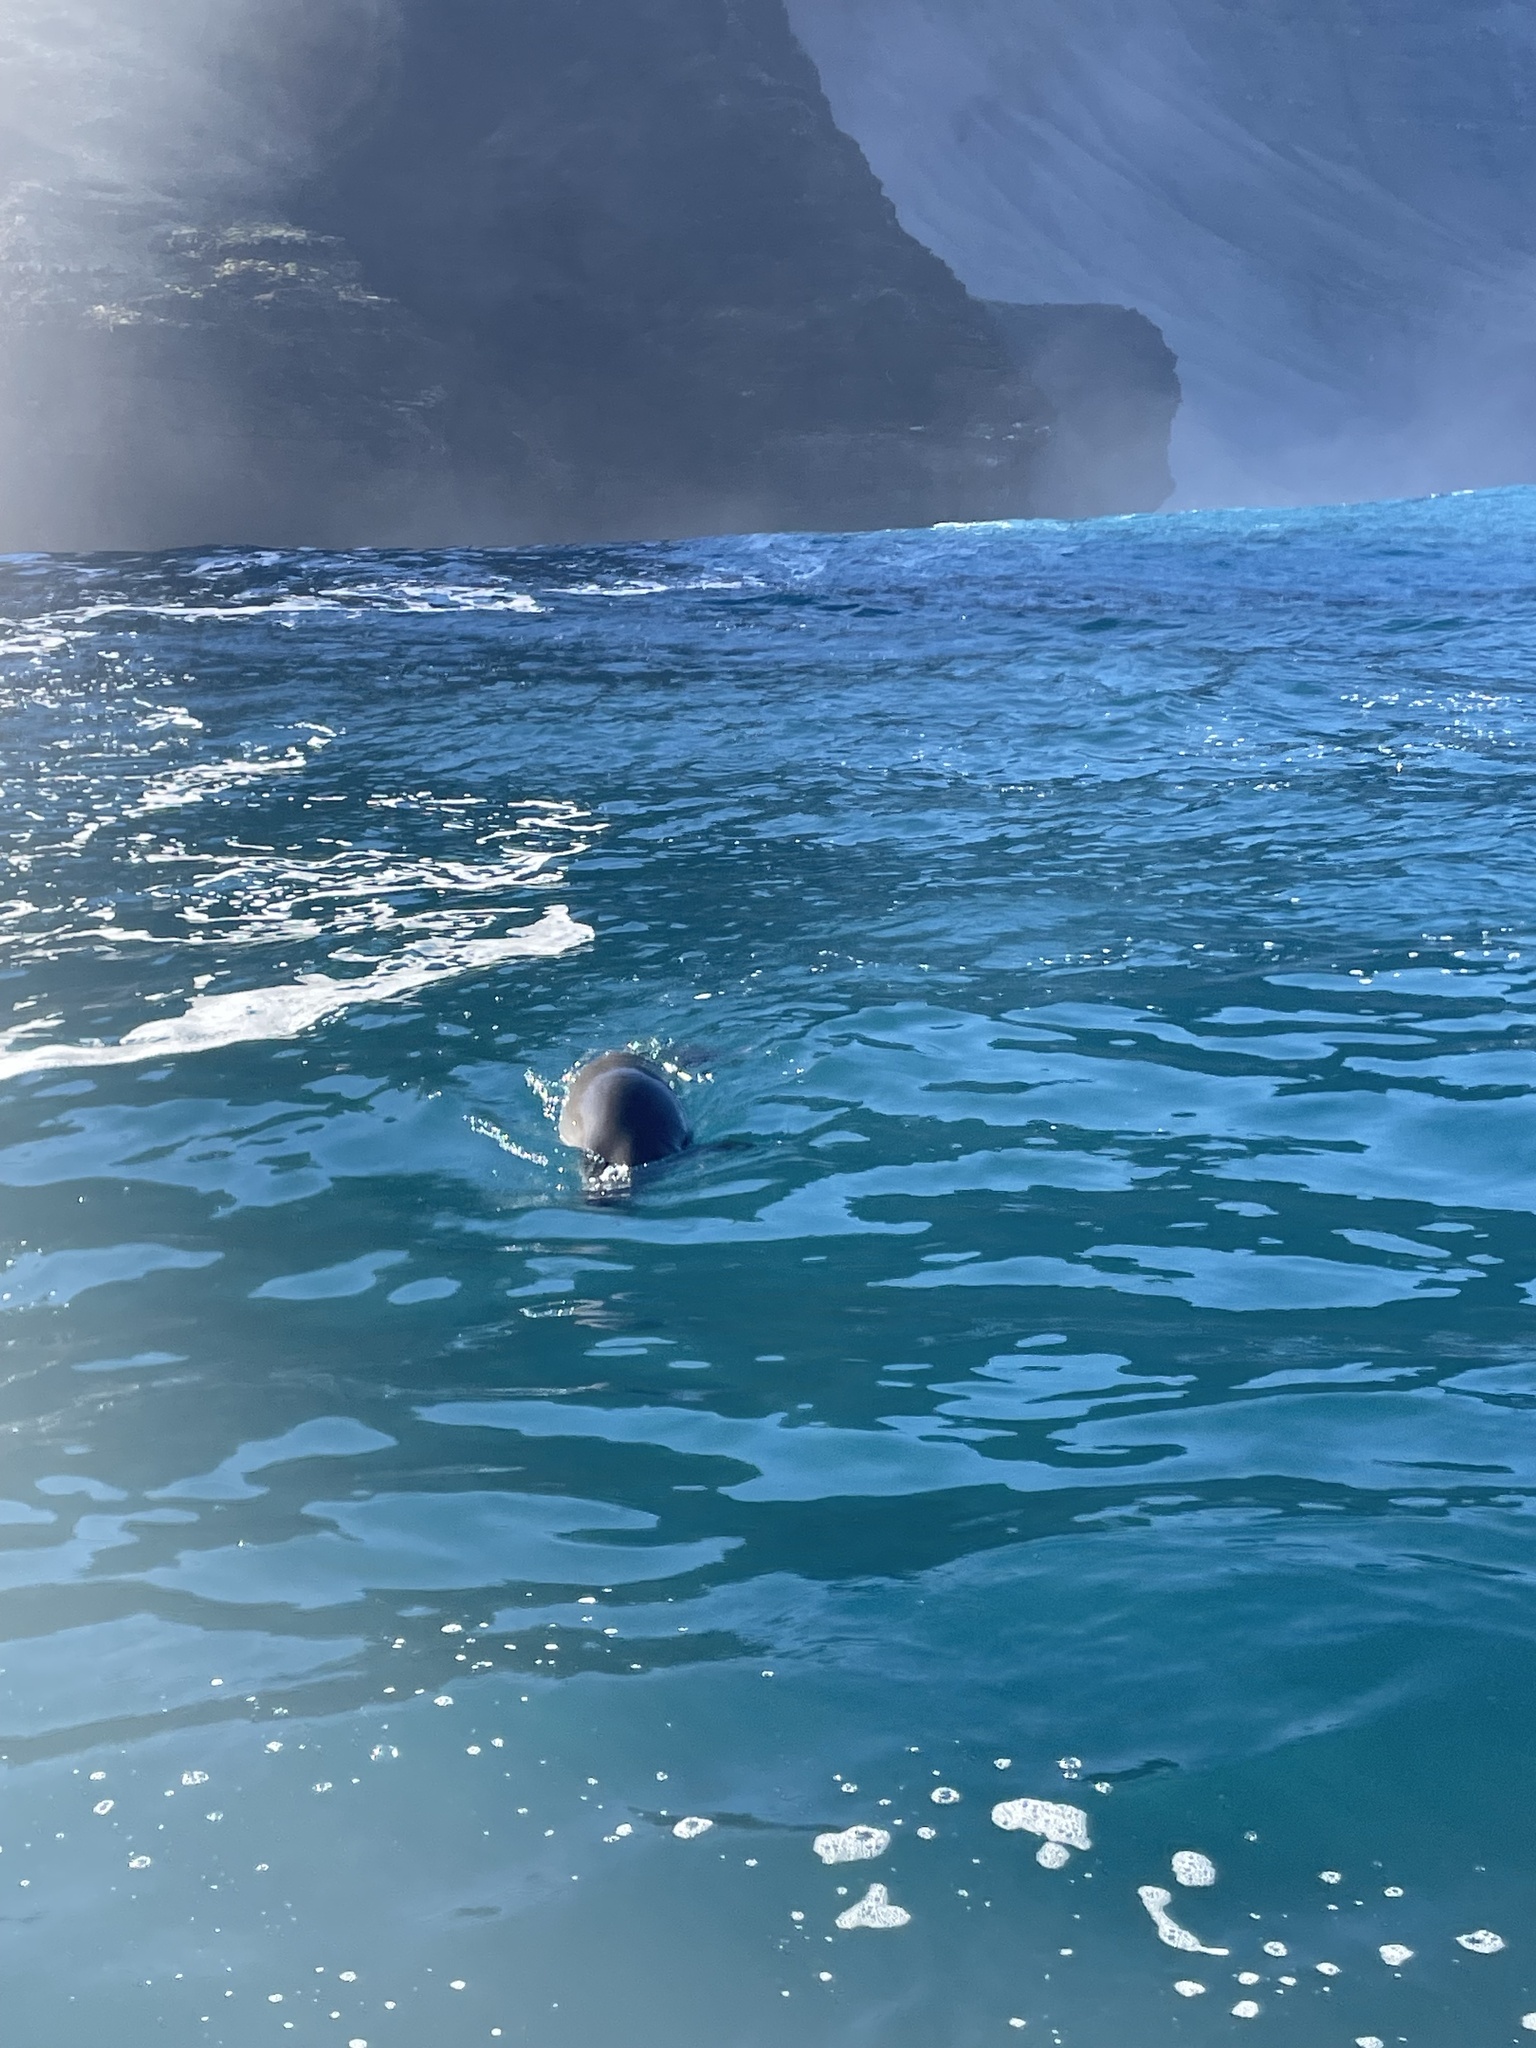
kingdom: Animalia
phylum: Chordata
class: Mammalia
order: Carnivora
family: Phocidae
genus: Neomonachus
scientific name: Neomonachus schauinslandi
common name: Hawaiian monk seal
